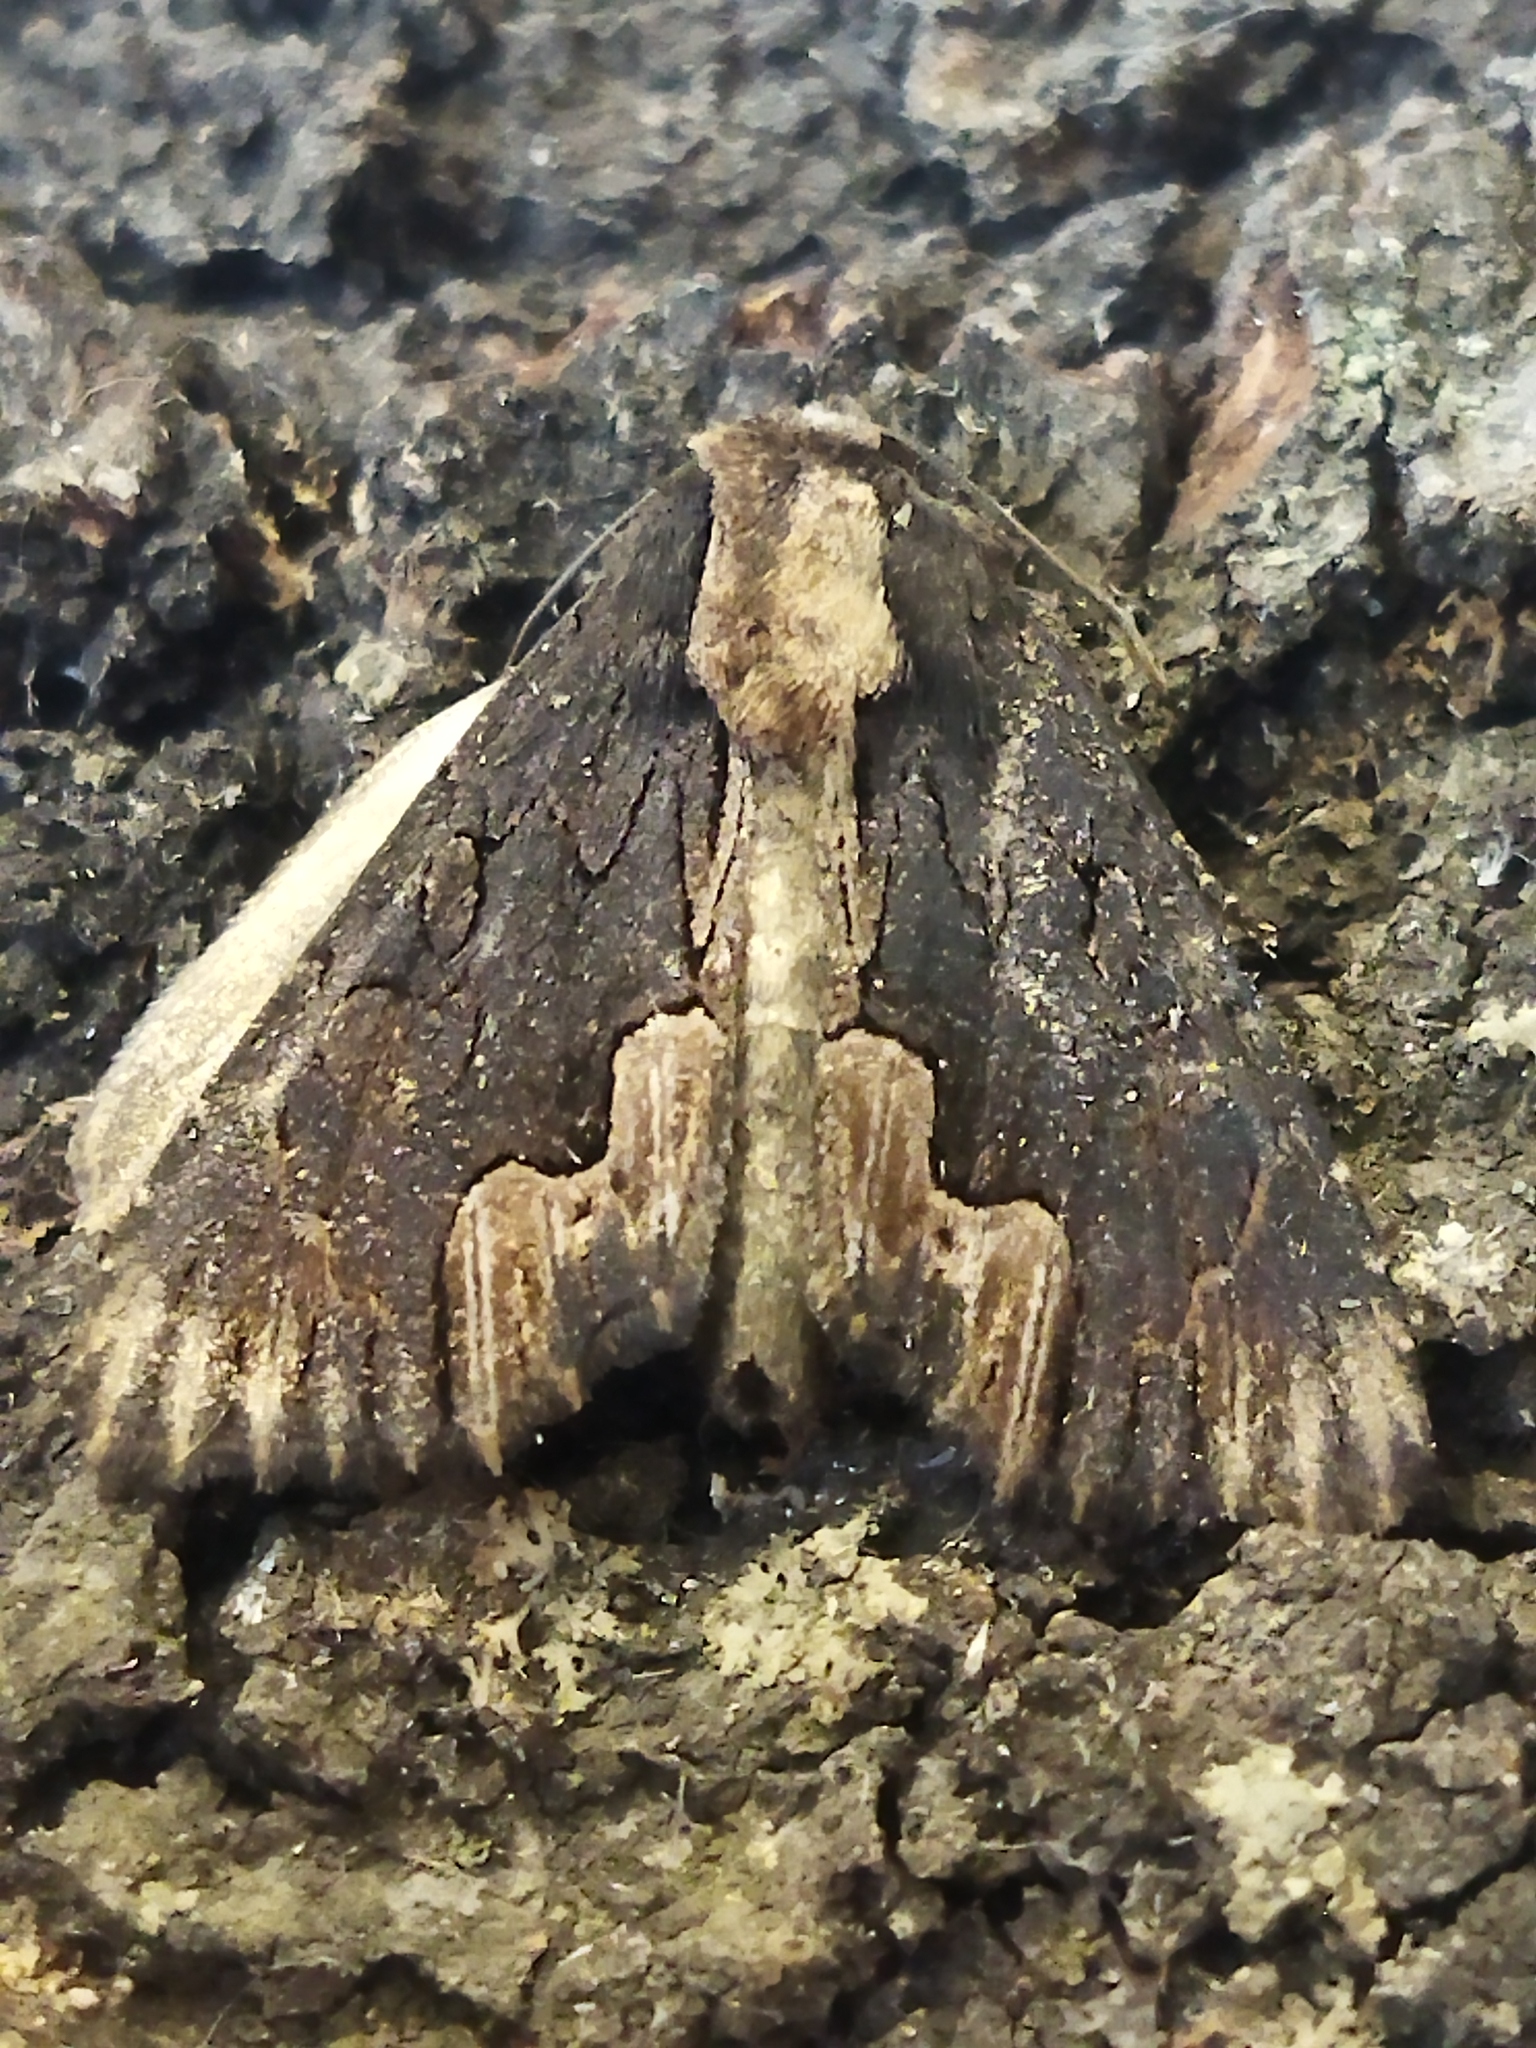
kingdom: Animalia
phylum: Arthropoda
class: Insecta
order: Lepidoptera
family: Noctuidae
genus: Dypterygia
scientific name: Dypterygia scabriuscula
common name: Bird's wing
